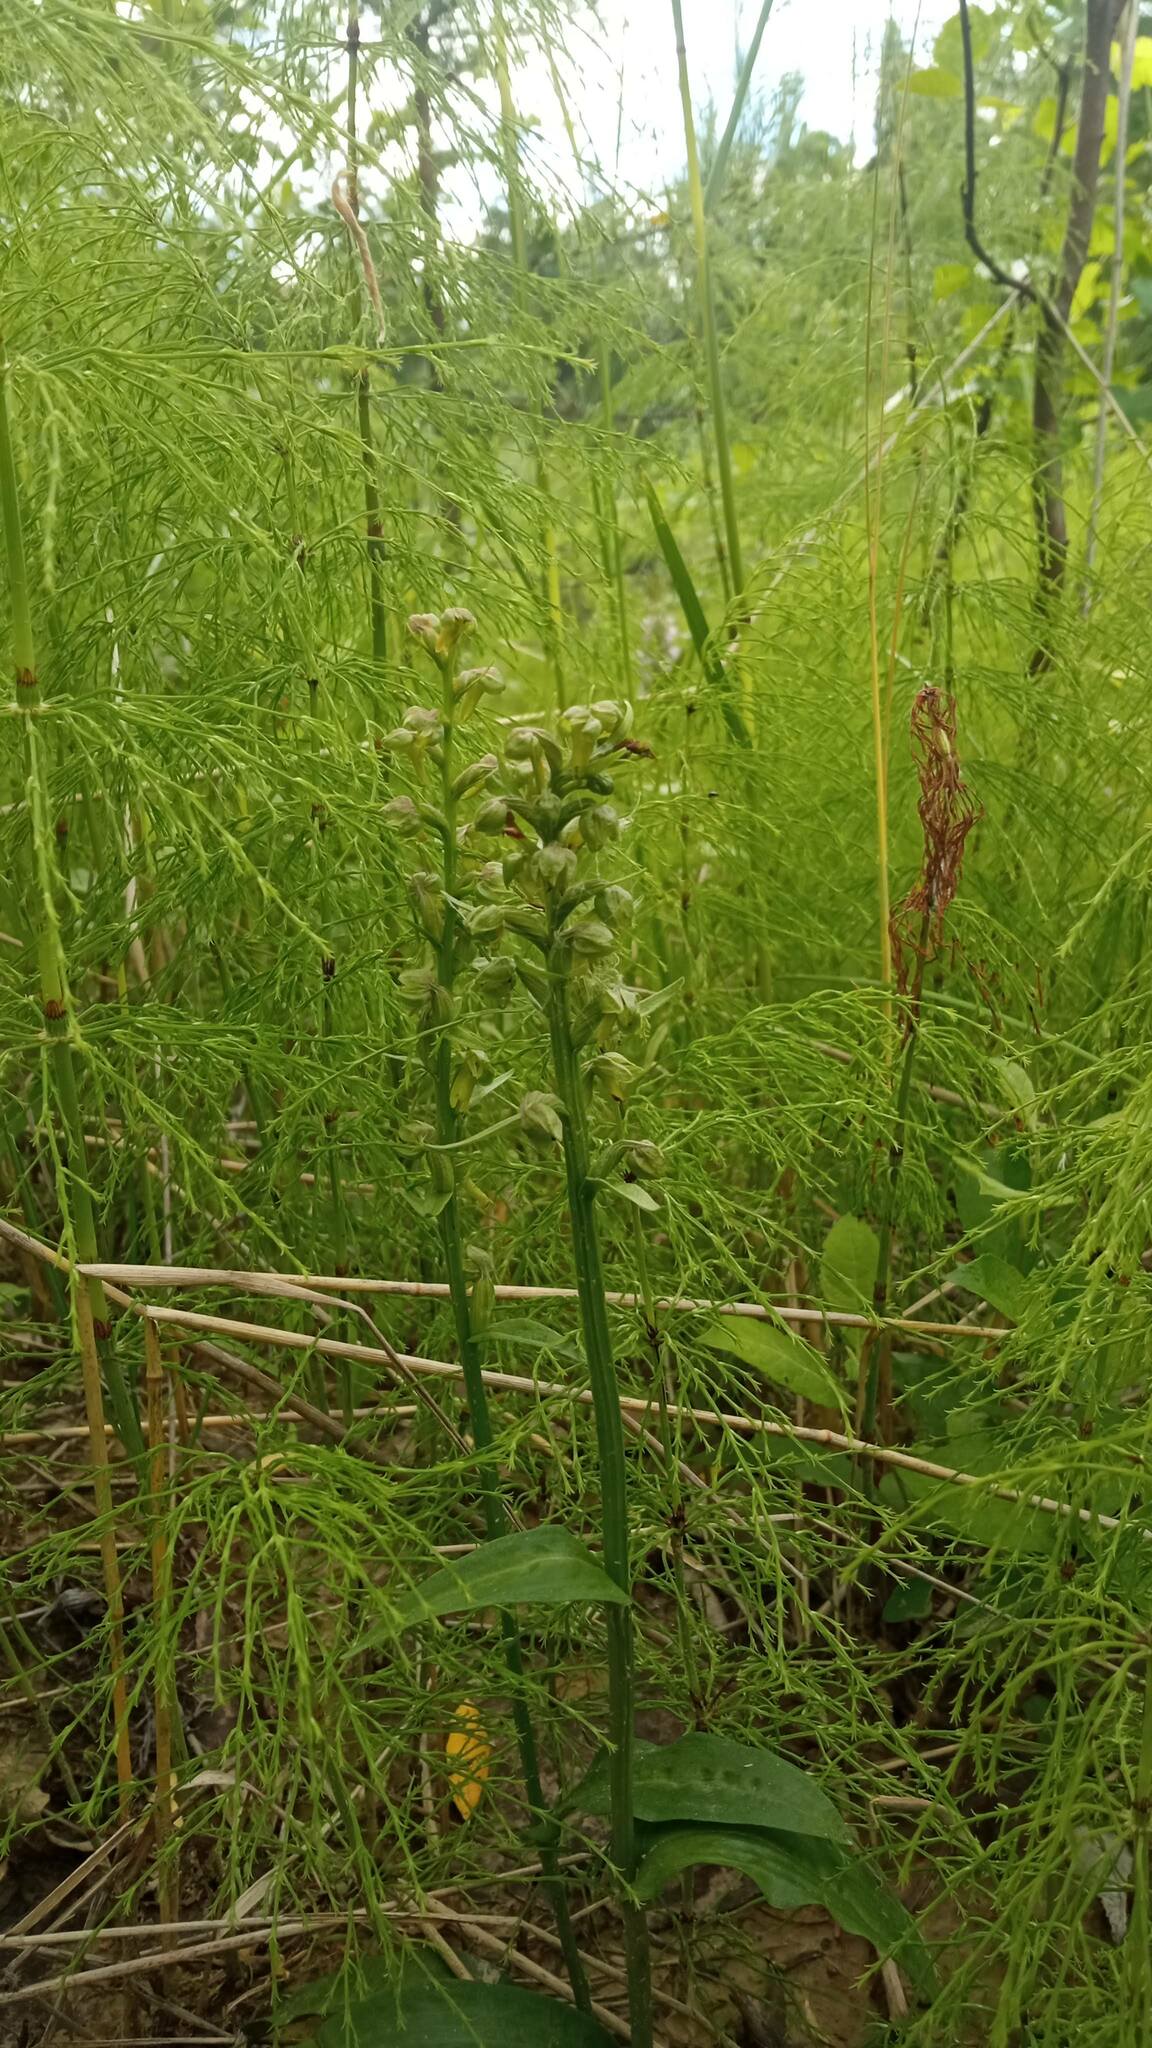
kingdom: Plantae
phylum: Tracheophyta
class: Liliopsida
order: Asparagales
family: Orchidaceae
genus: Dactylorhiza
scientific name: Dactylorhiza viridis
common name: Longbract frog orchid
